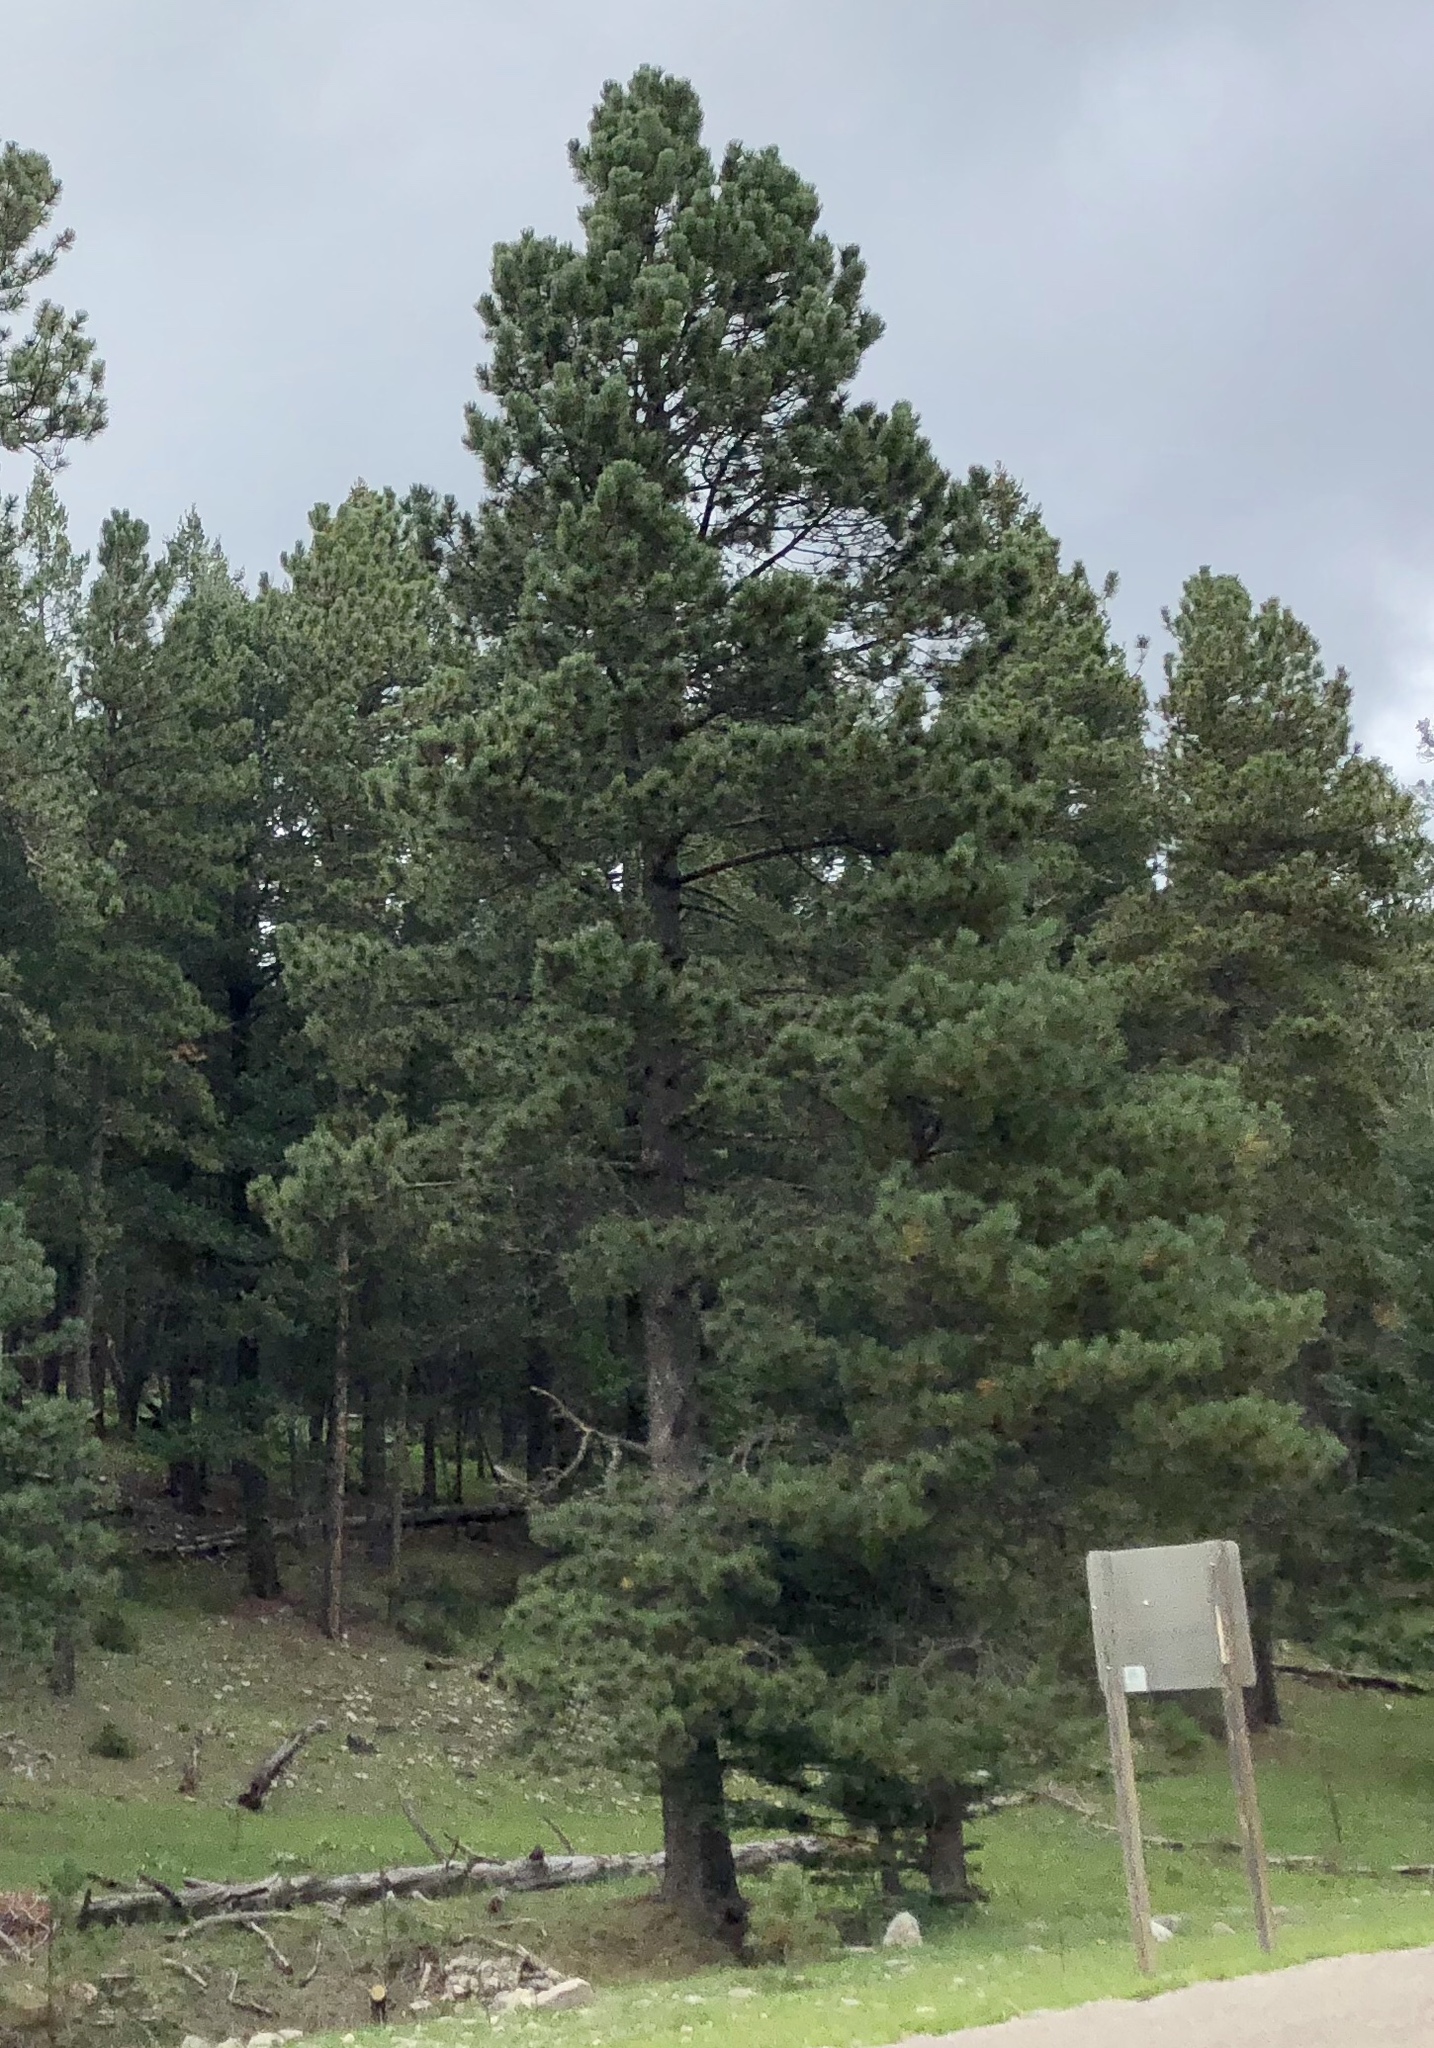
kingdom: Plantae
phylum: Tracheophyta
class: Pinopsida
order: Pinales
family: Pinaceae
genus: Pinus
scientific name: Pinus ponderosa
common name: Western yellow-pine
